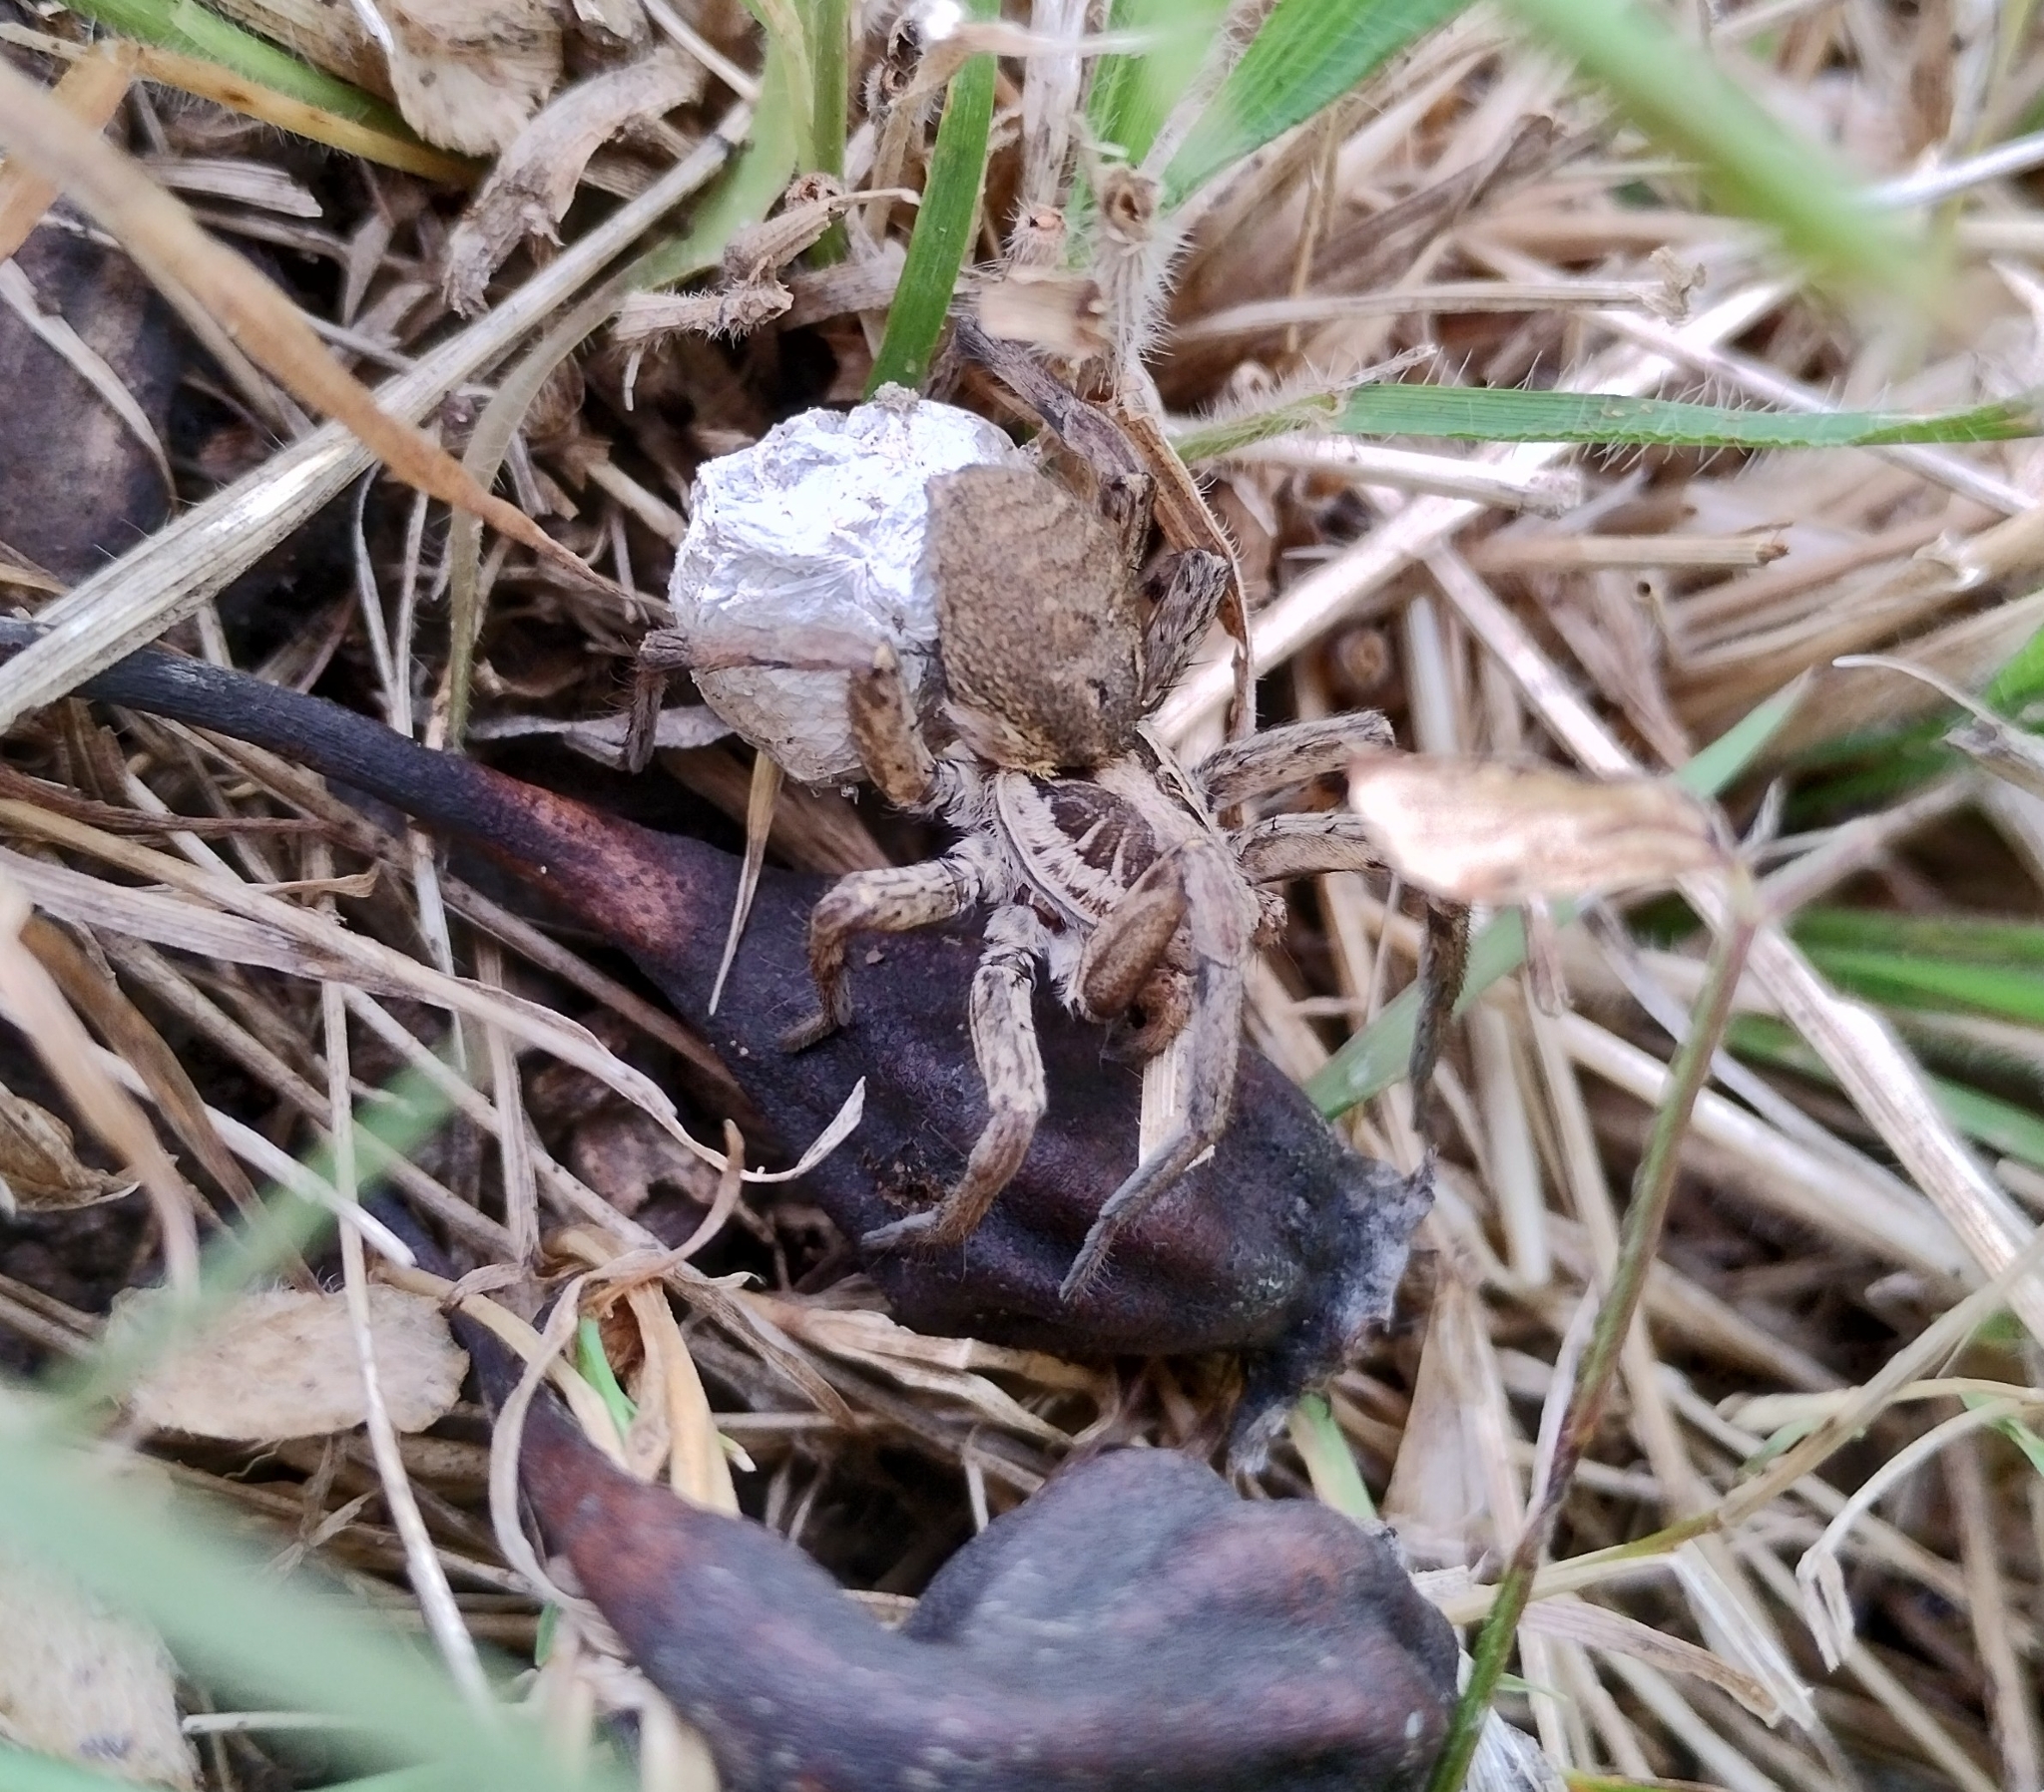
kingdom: Animalia
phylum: Arthropoda
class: Arachnida
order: Araneae
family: Lycosidae
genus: Hogna
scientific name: Hogna radiata
